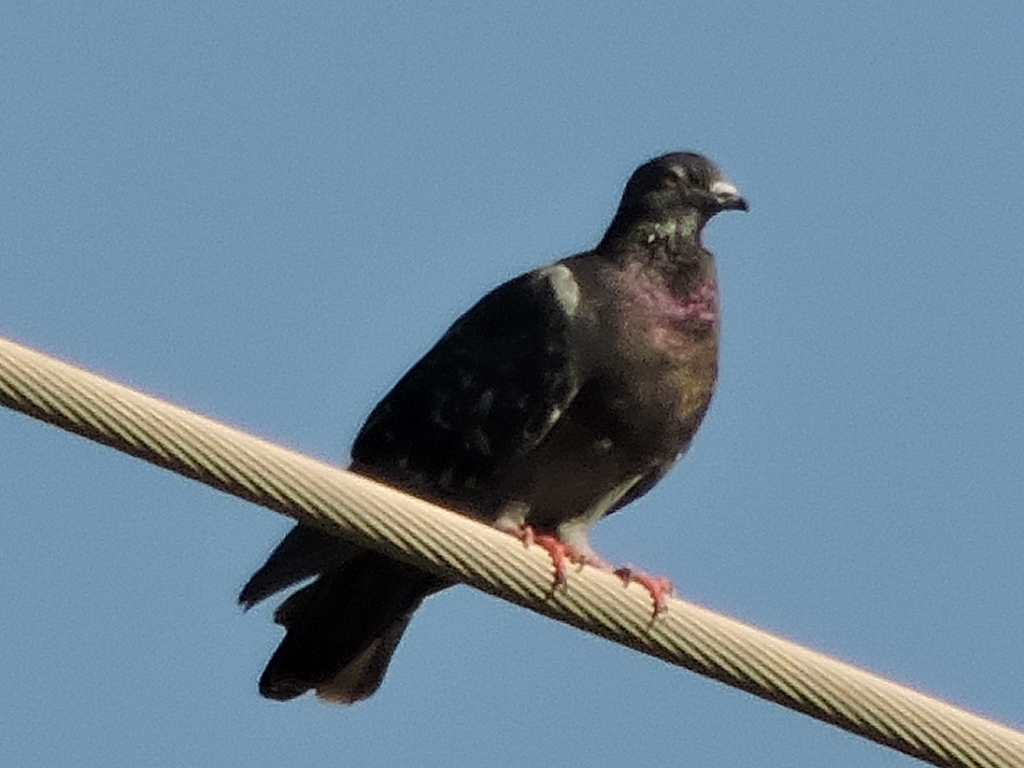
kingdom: Animalia
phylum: Chordata
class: Aves
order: Columbiformes
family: Columbidae
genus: Columba
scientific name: Columba livia
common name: Rock pigeon
